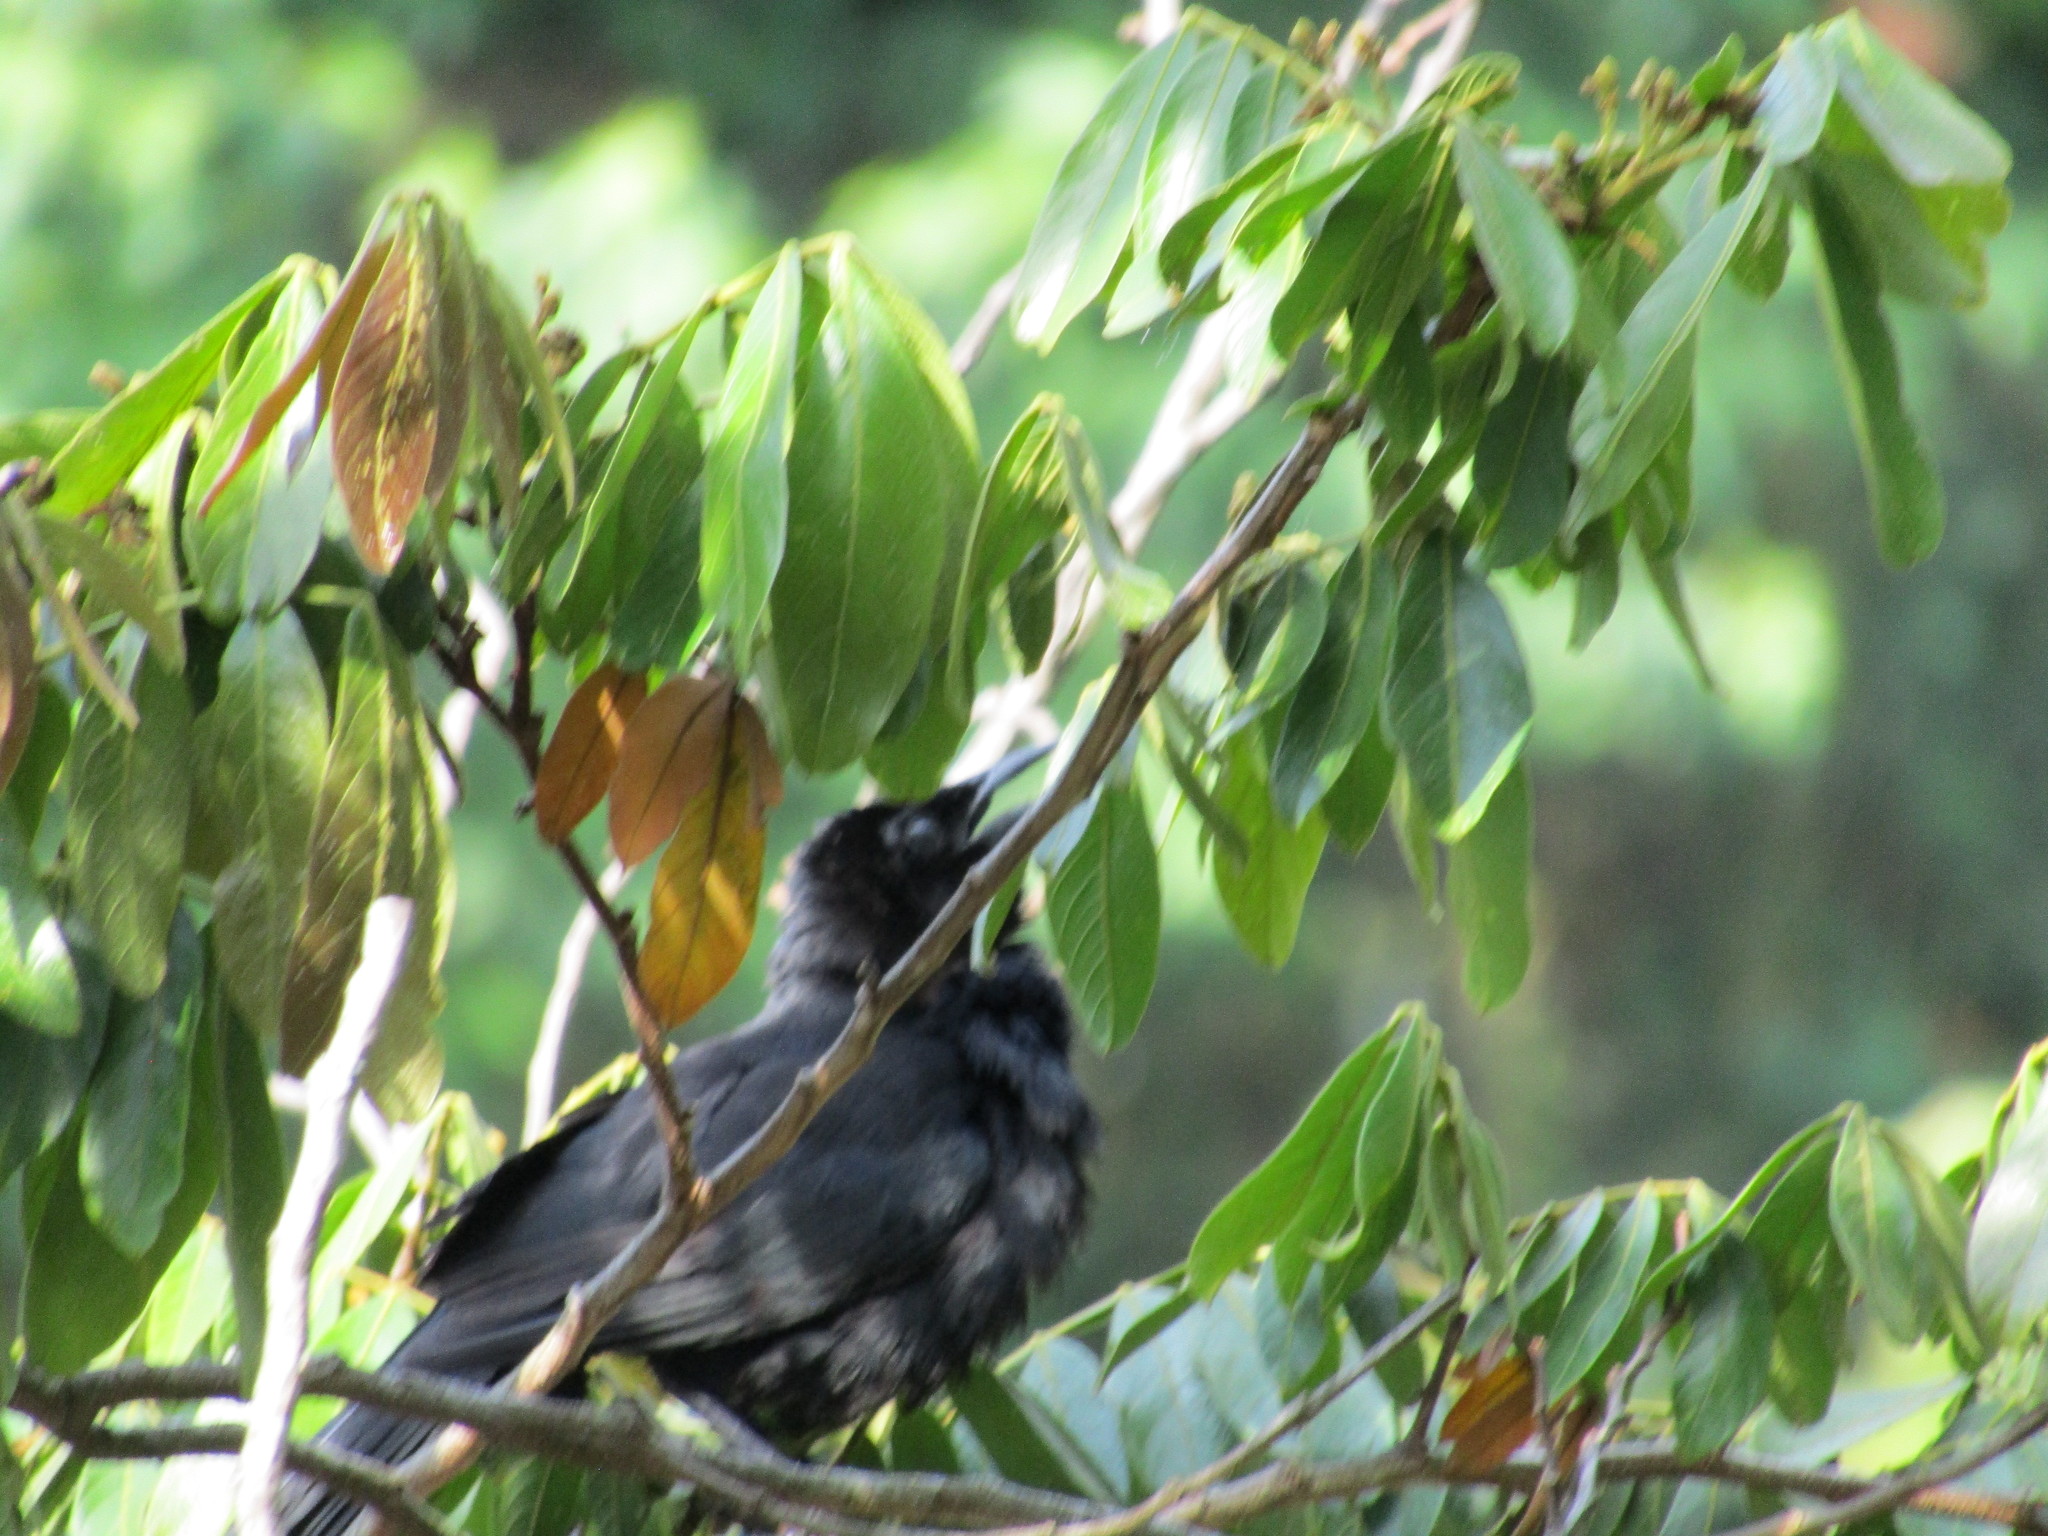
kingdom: Animalia
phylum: Chordata
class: Aves
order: Passeriformes
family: Icteridae
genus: Dives
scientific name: Dives dives
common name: Melodious blackbird
